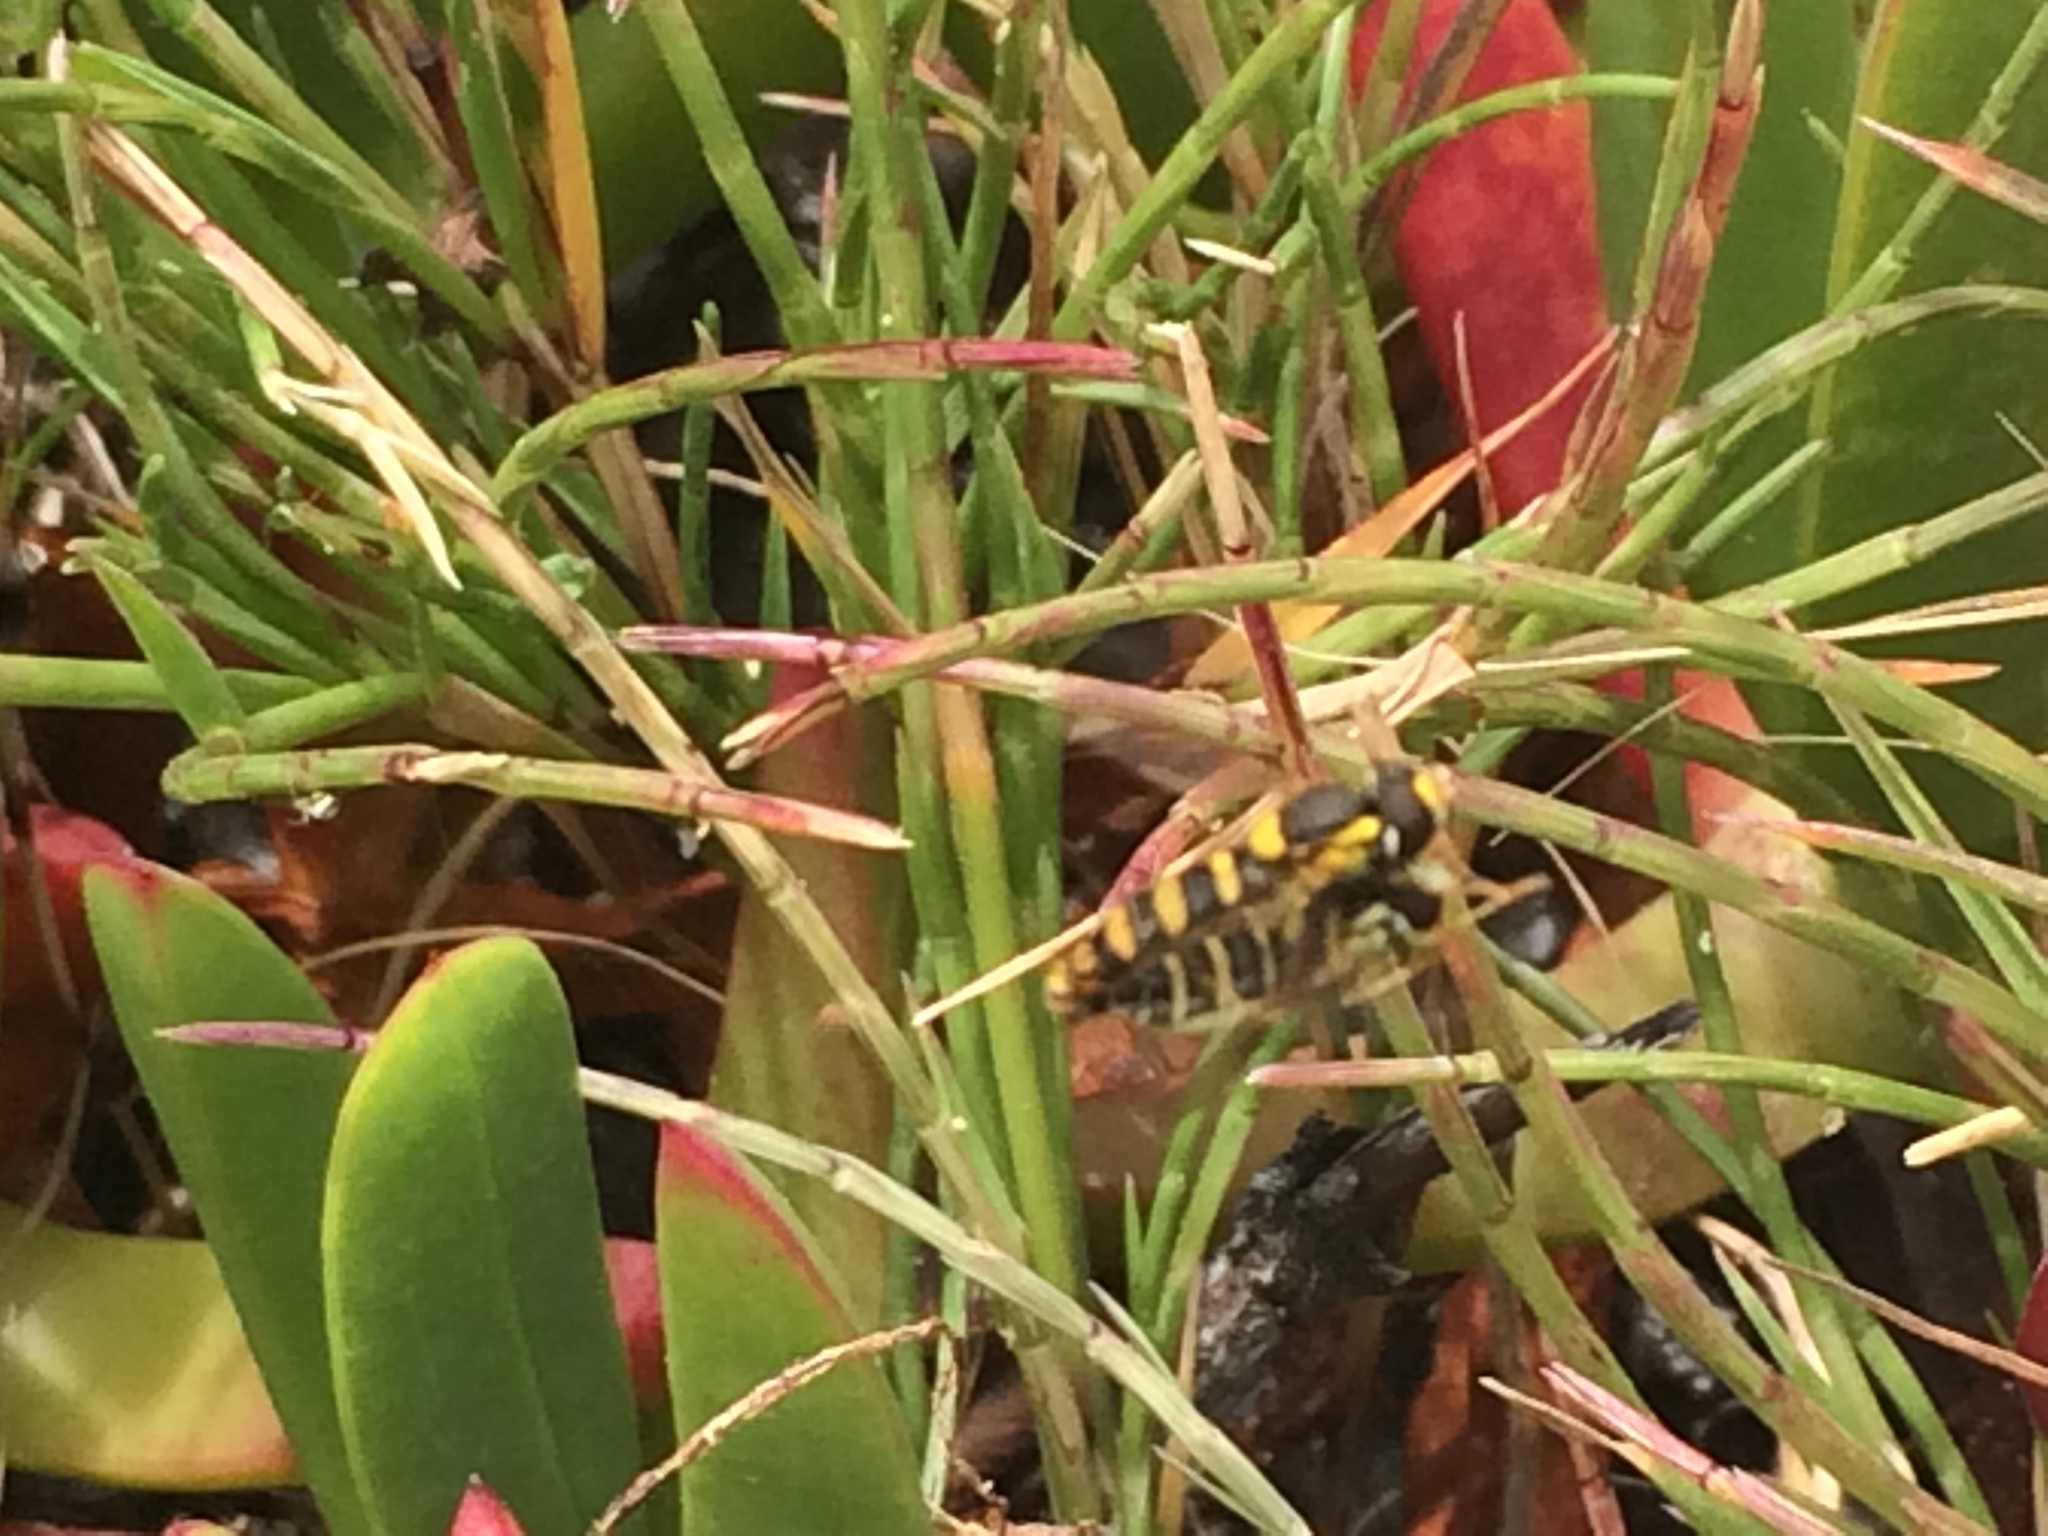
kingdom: Animalia
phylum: Arthropoda
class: Insecta
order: Diptera
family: Syrphidae
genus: Sphaerophoria
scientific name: Sphaerophoria
